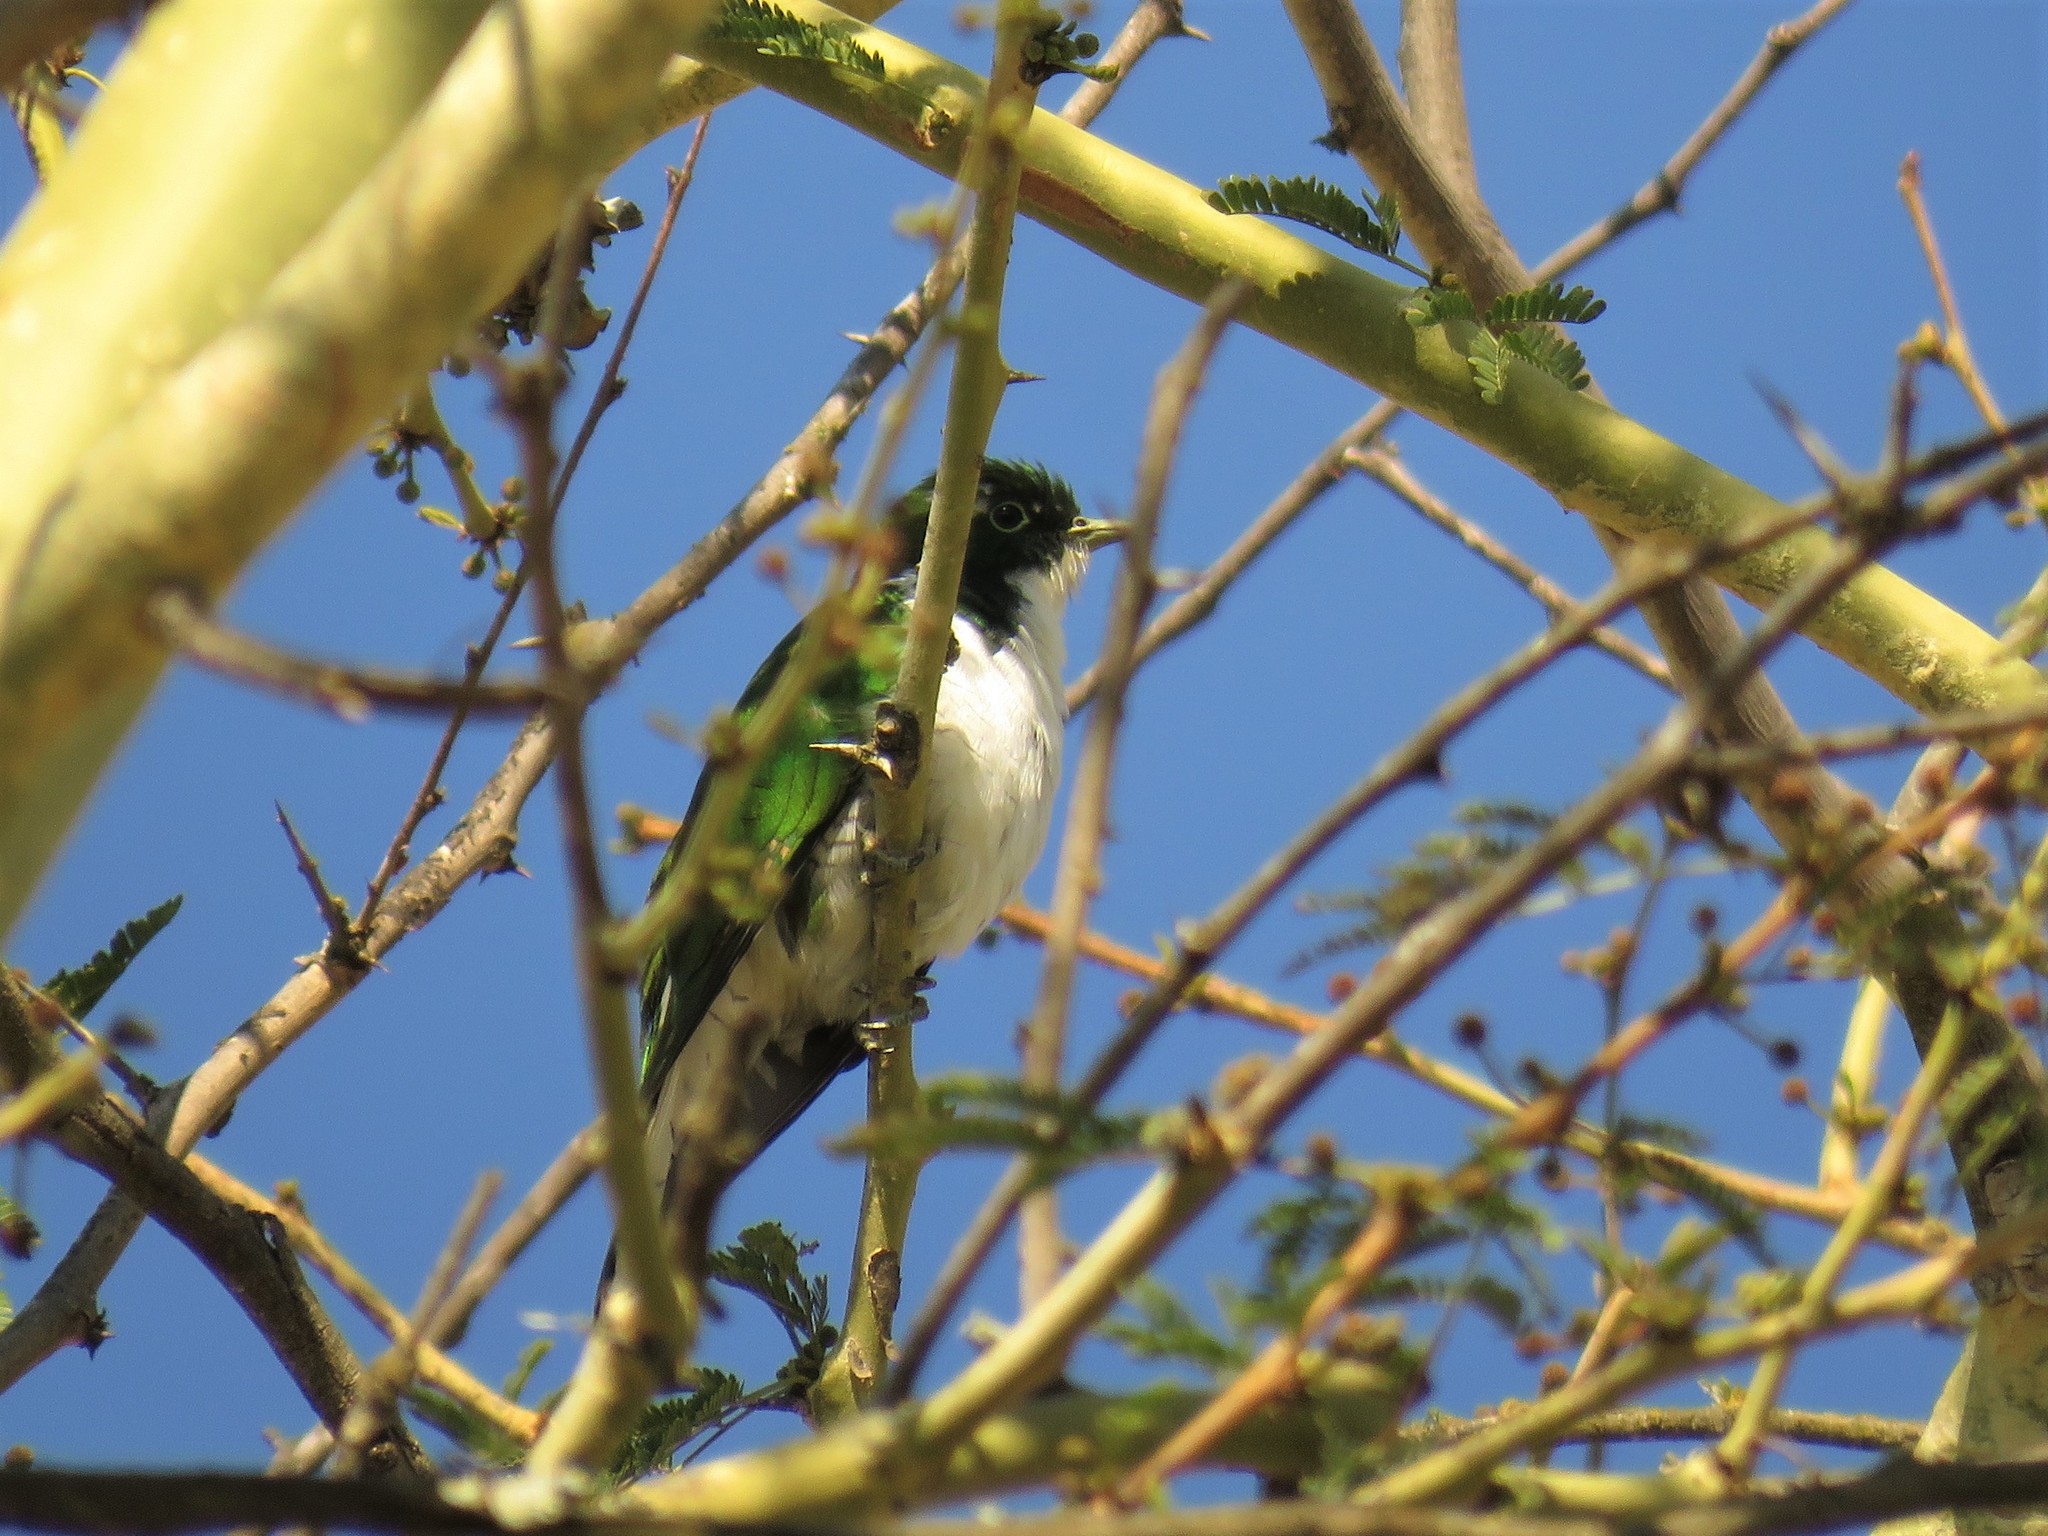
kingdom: Animalia
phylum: Chordata
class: Aves
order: Cuculiformes
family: Cuculidae
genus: Chrysococcyx
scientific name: Chrysococcyx klaas
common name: Klaas's cuckoo
